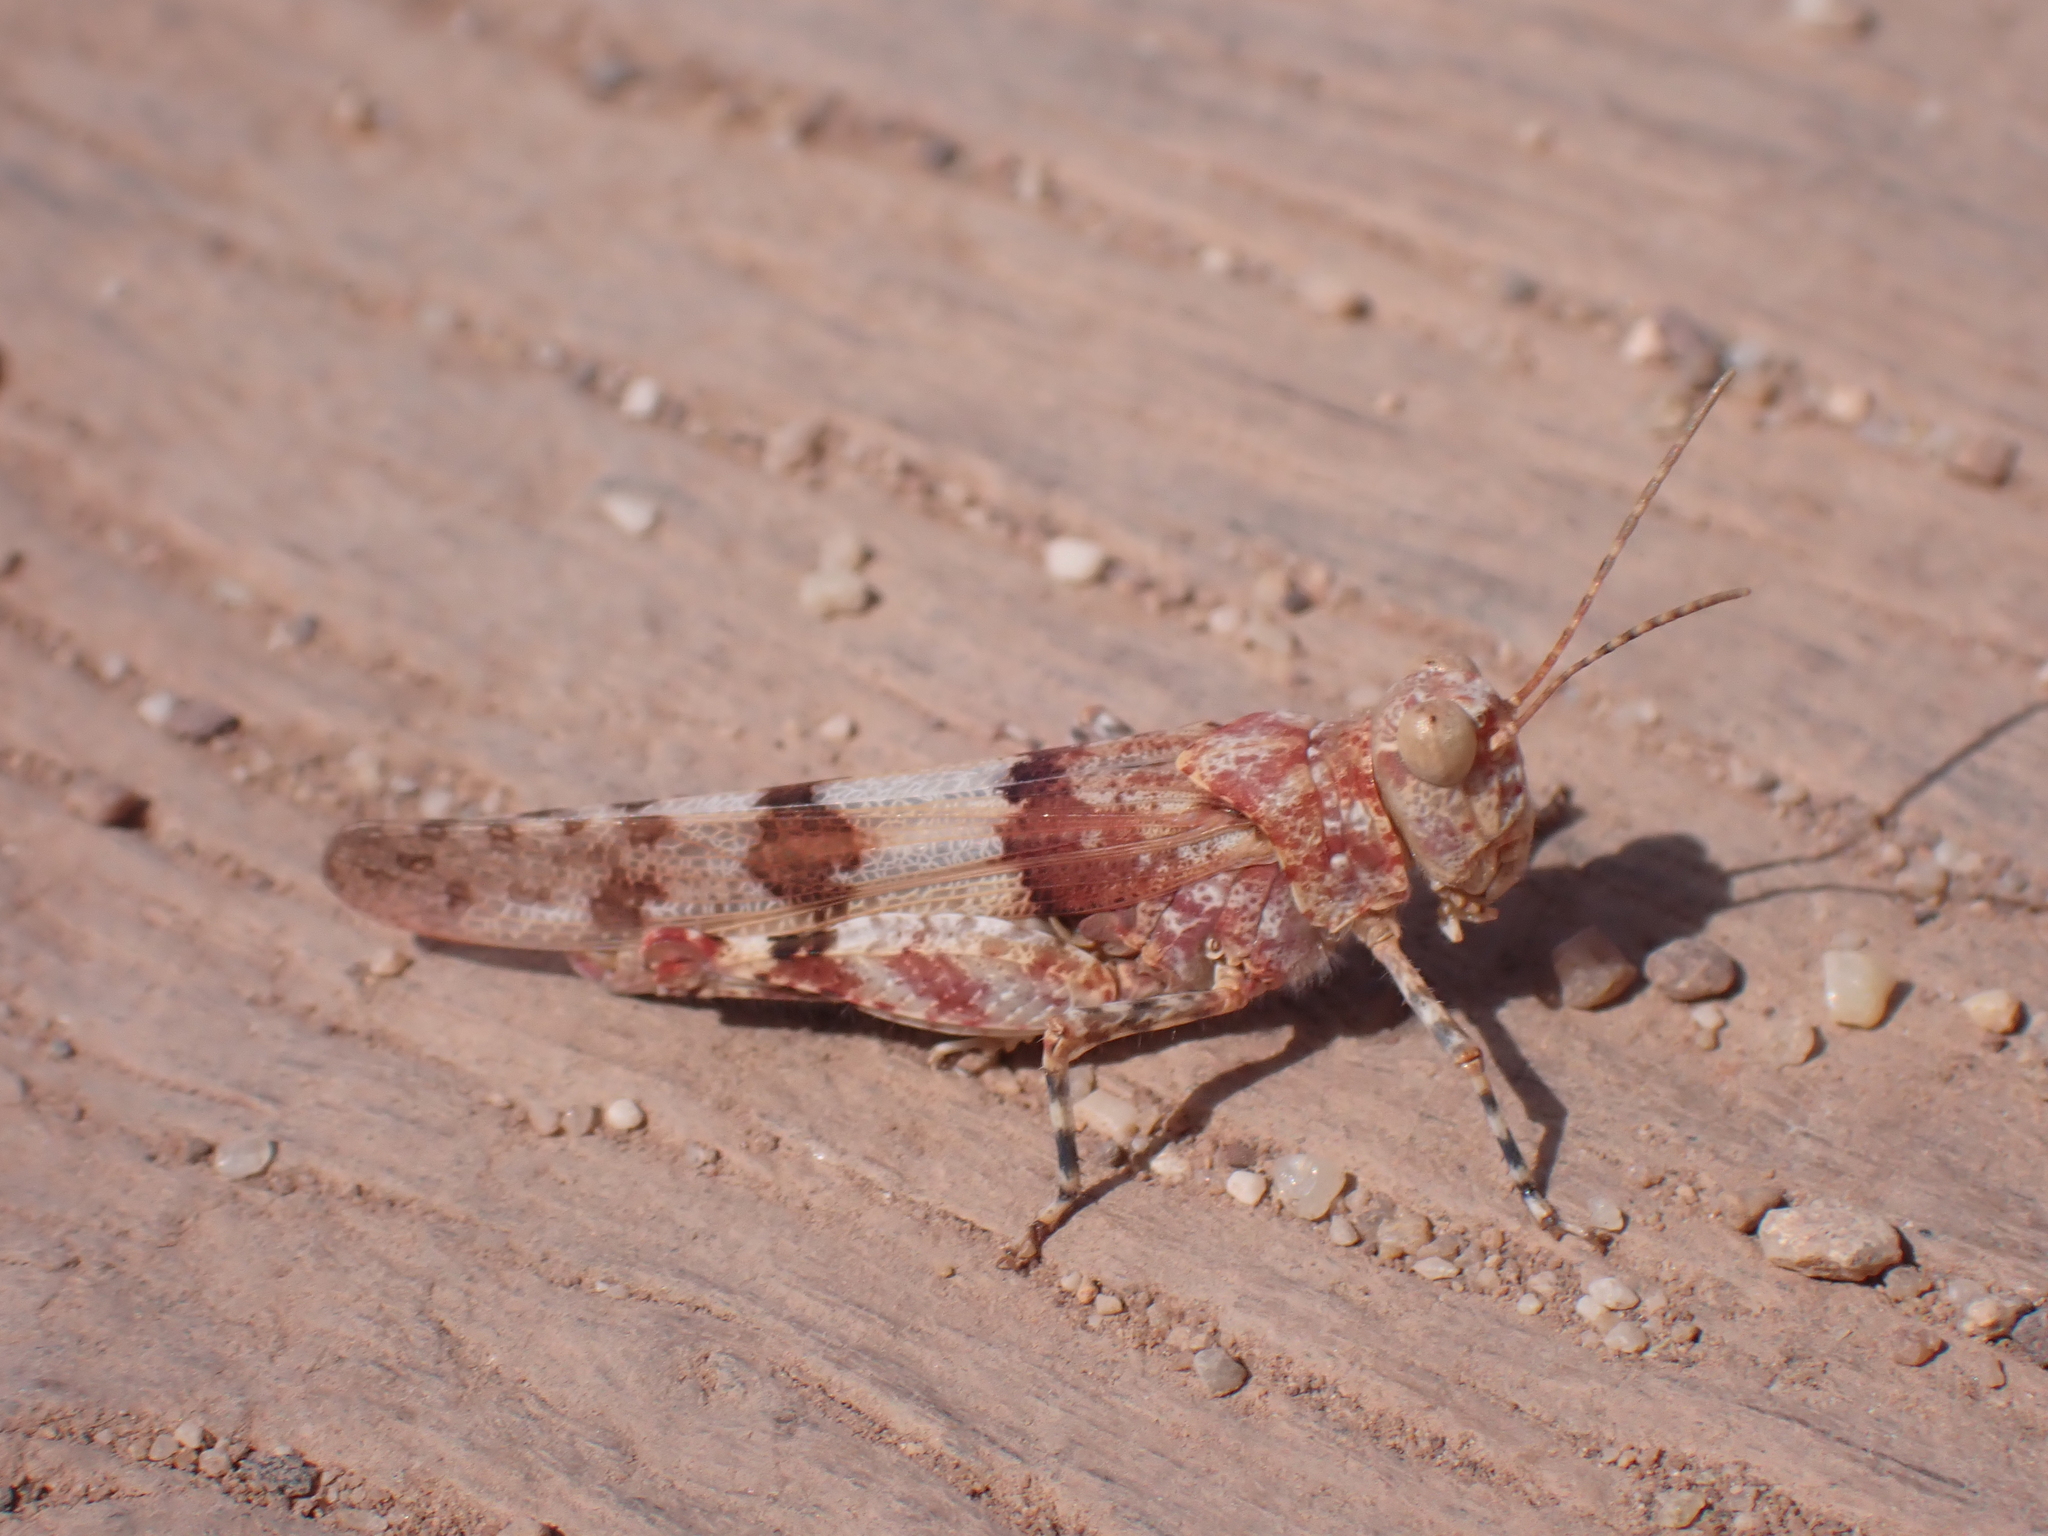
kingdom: Animalia
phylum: Arthropoda
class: Insecta
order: Orthoptera
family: Acrididae
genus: Sphingonotus
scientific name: Sphingonotus caerulans
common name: Blue-winged locust
